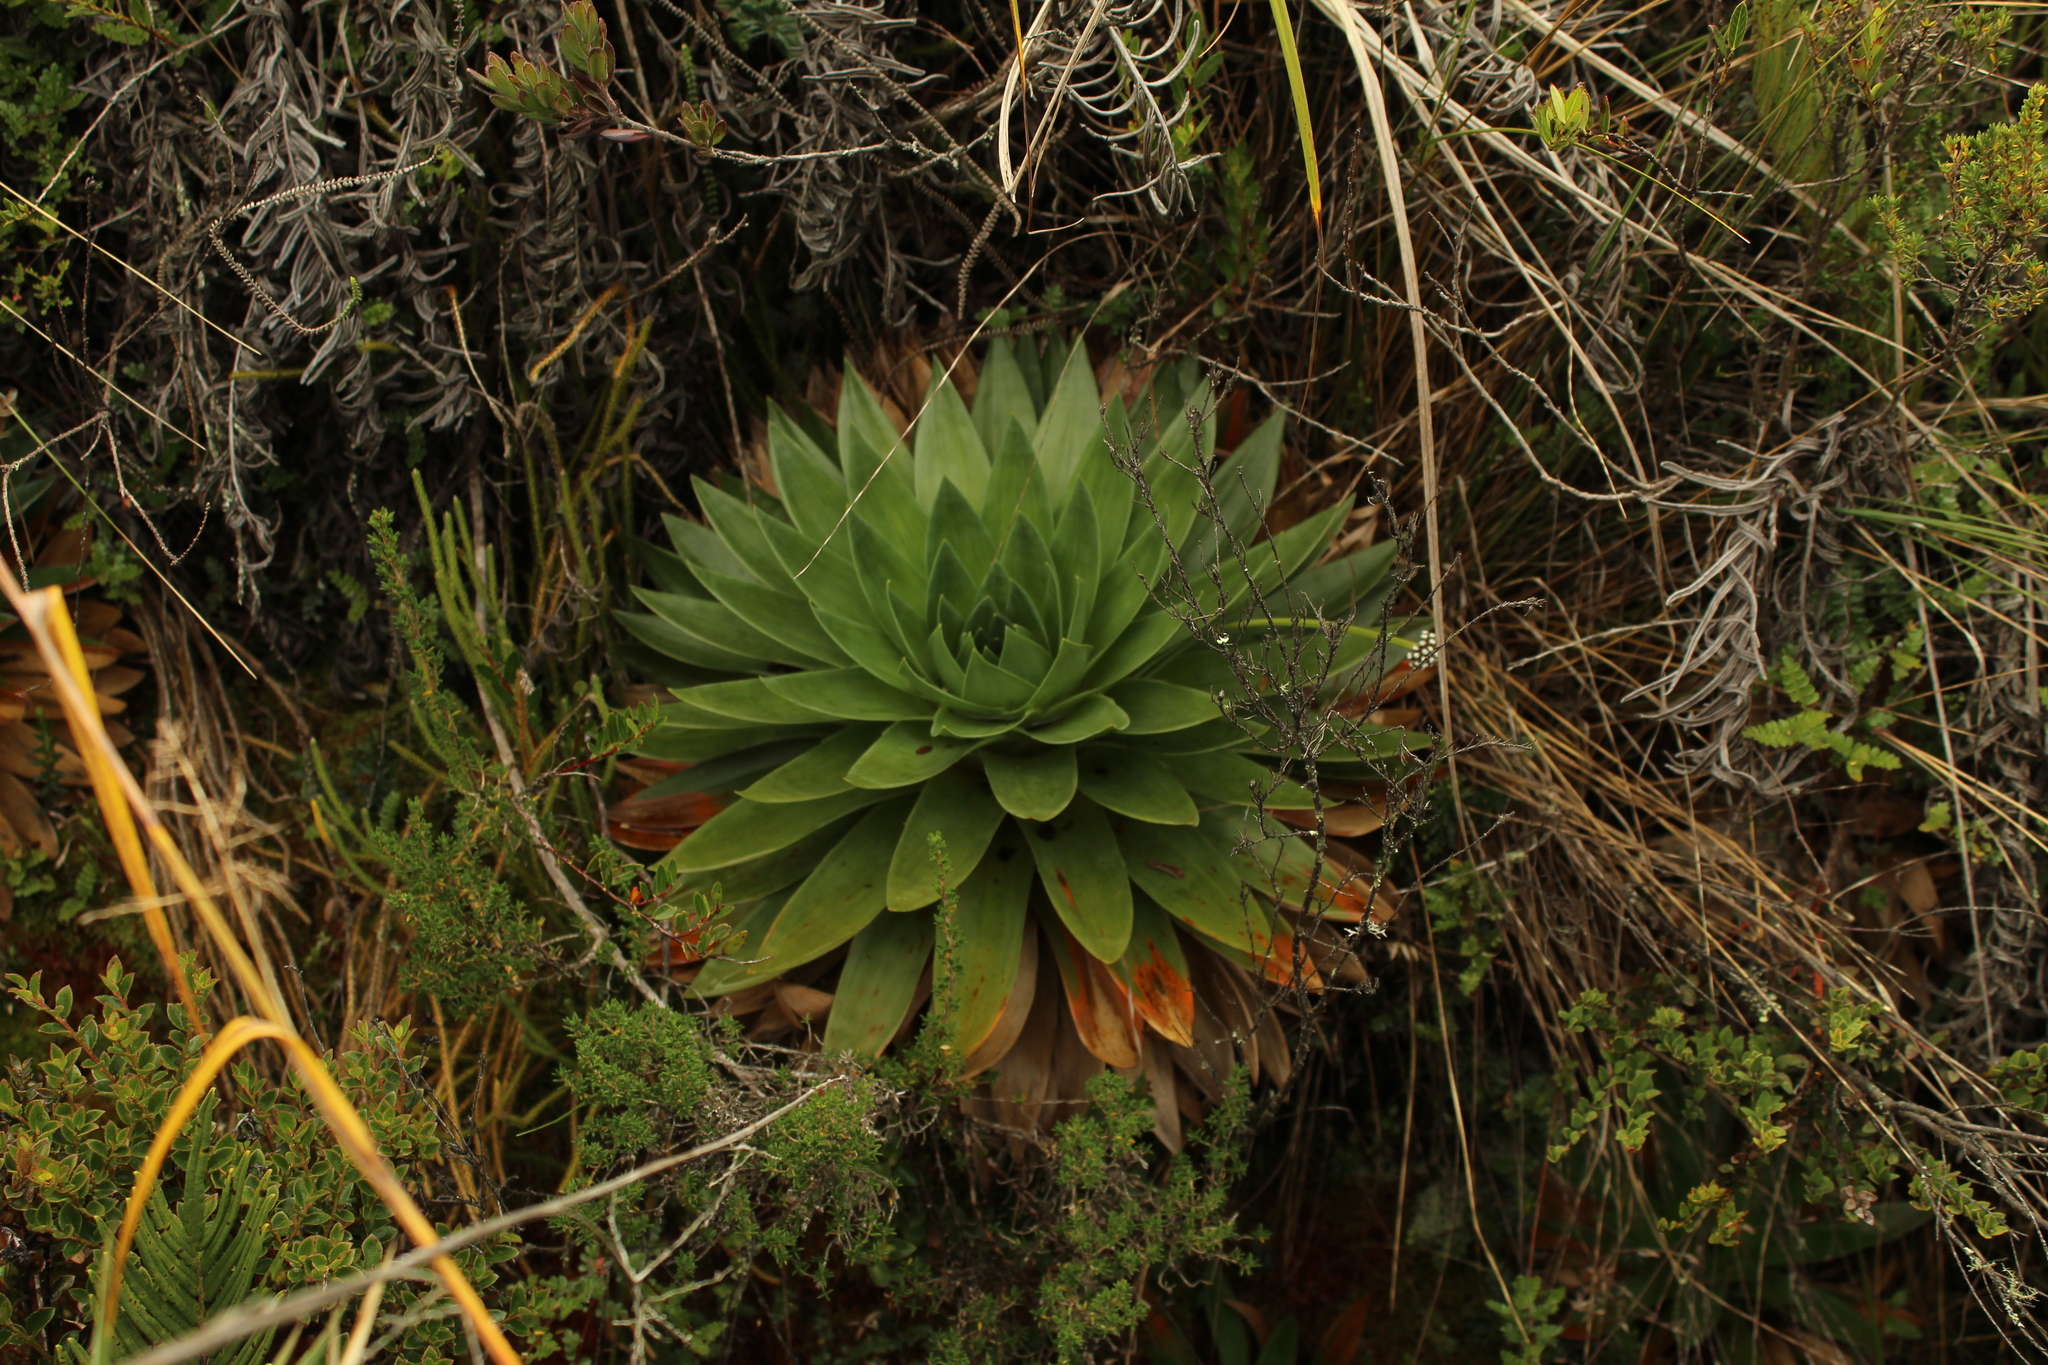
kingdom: Plantae
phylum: Tracheophyta
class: Liliopsida
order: Poales
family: Eriocaulaceae
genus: Paepalanthus
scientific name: Paepalanthus alpinus
